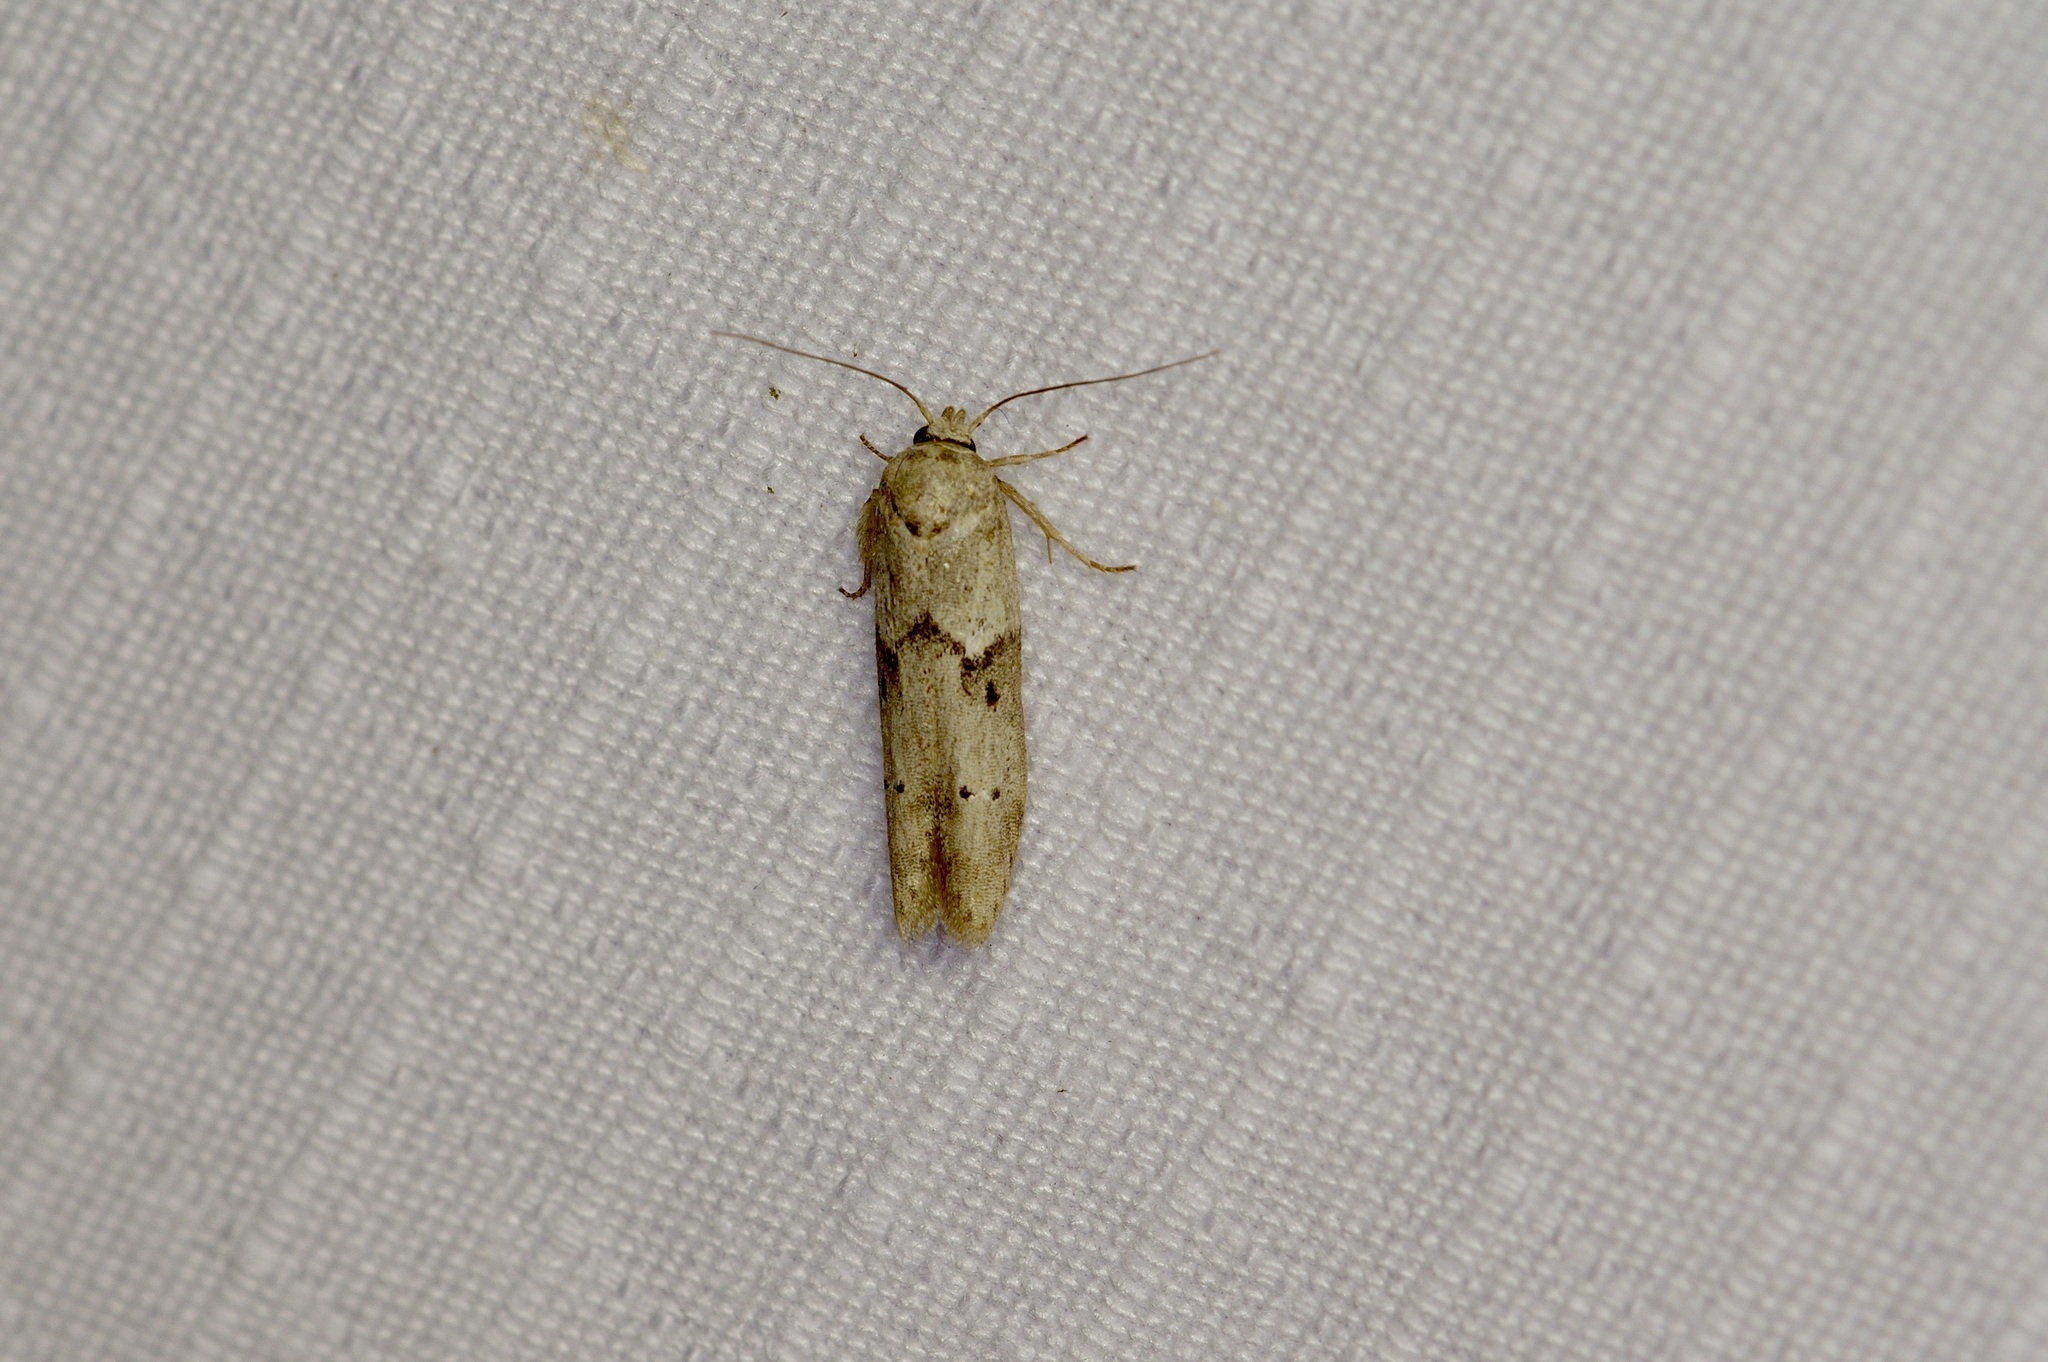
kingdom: Animalia
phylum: Arthropoda
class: Insecta
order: Lepidoptera
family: Blastobasidae
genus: Blastobasis
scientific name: Blastobasis glandulella
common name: Acorn moth
